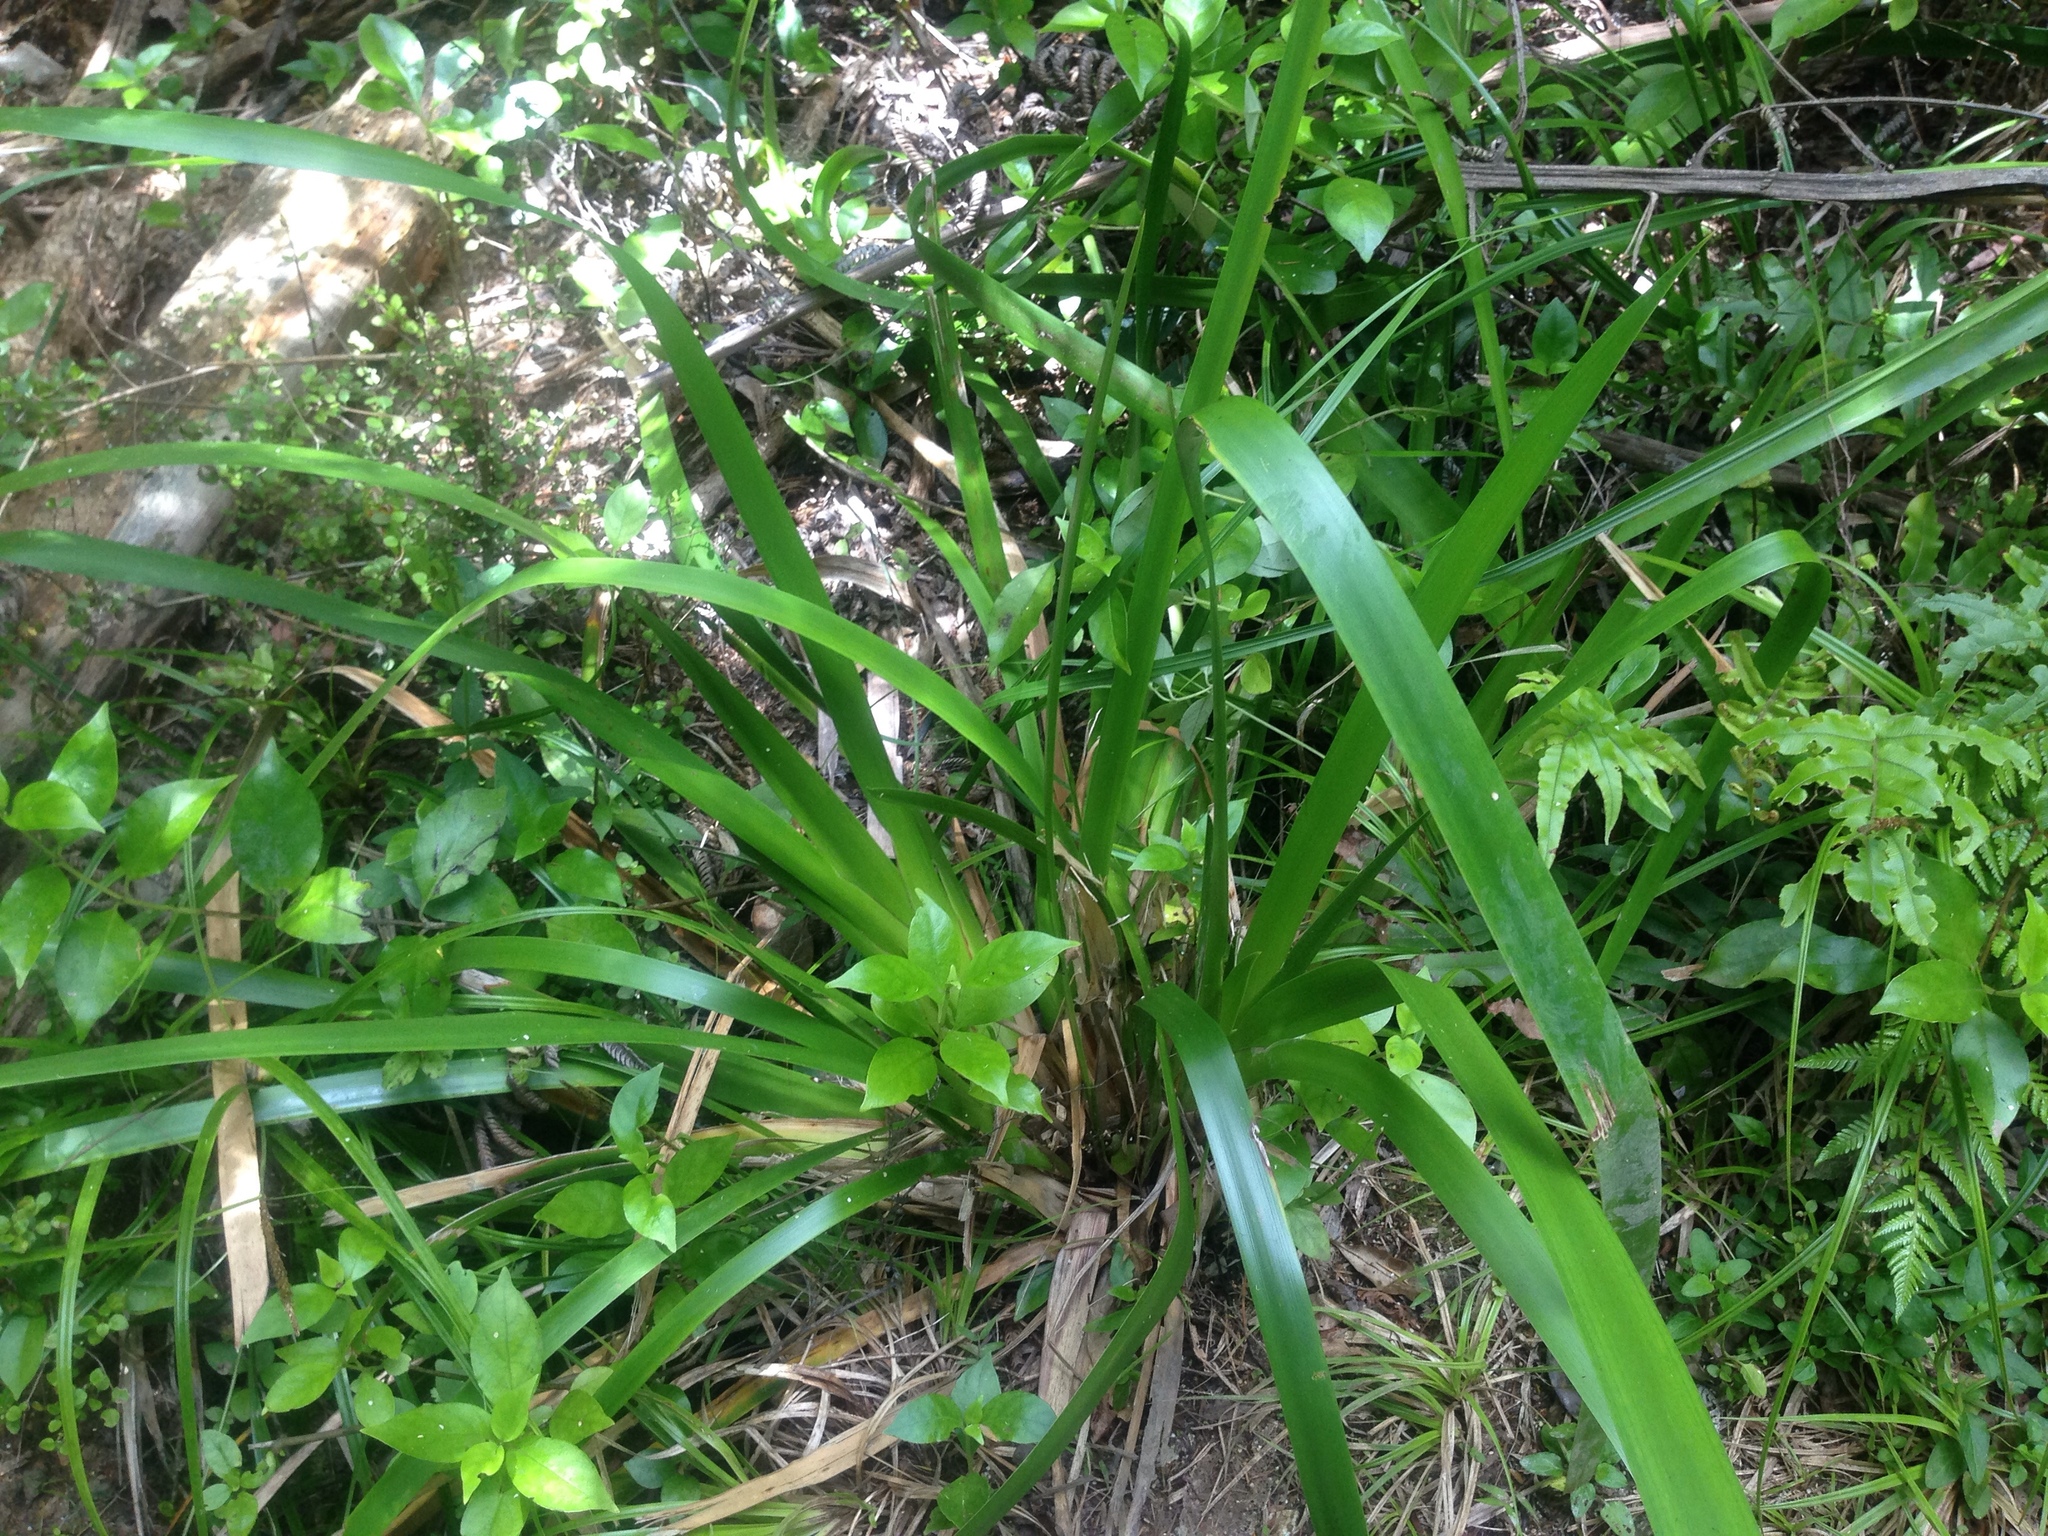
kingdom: Plantae
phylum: Tracheophyta
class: Liliopsida
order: Poales
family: Cyperaceae
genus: Machaerina
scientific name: Machaerina sinclairii
